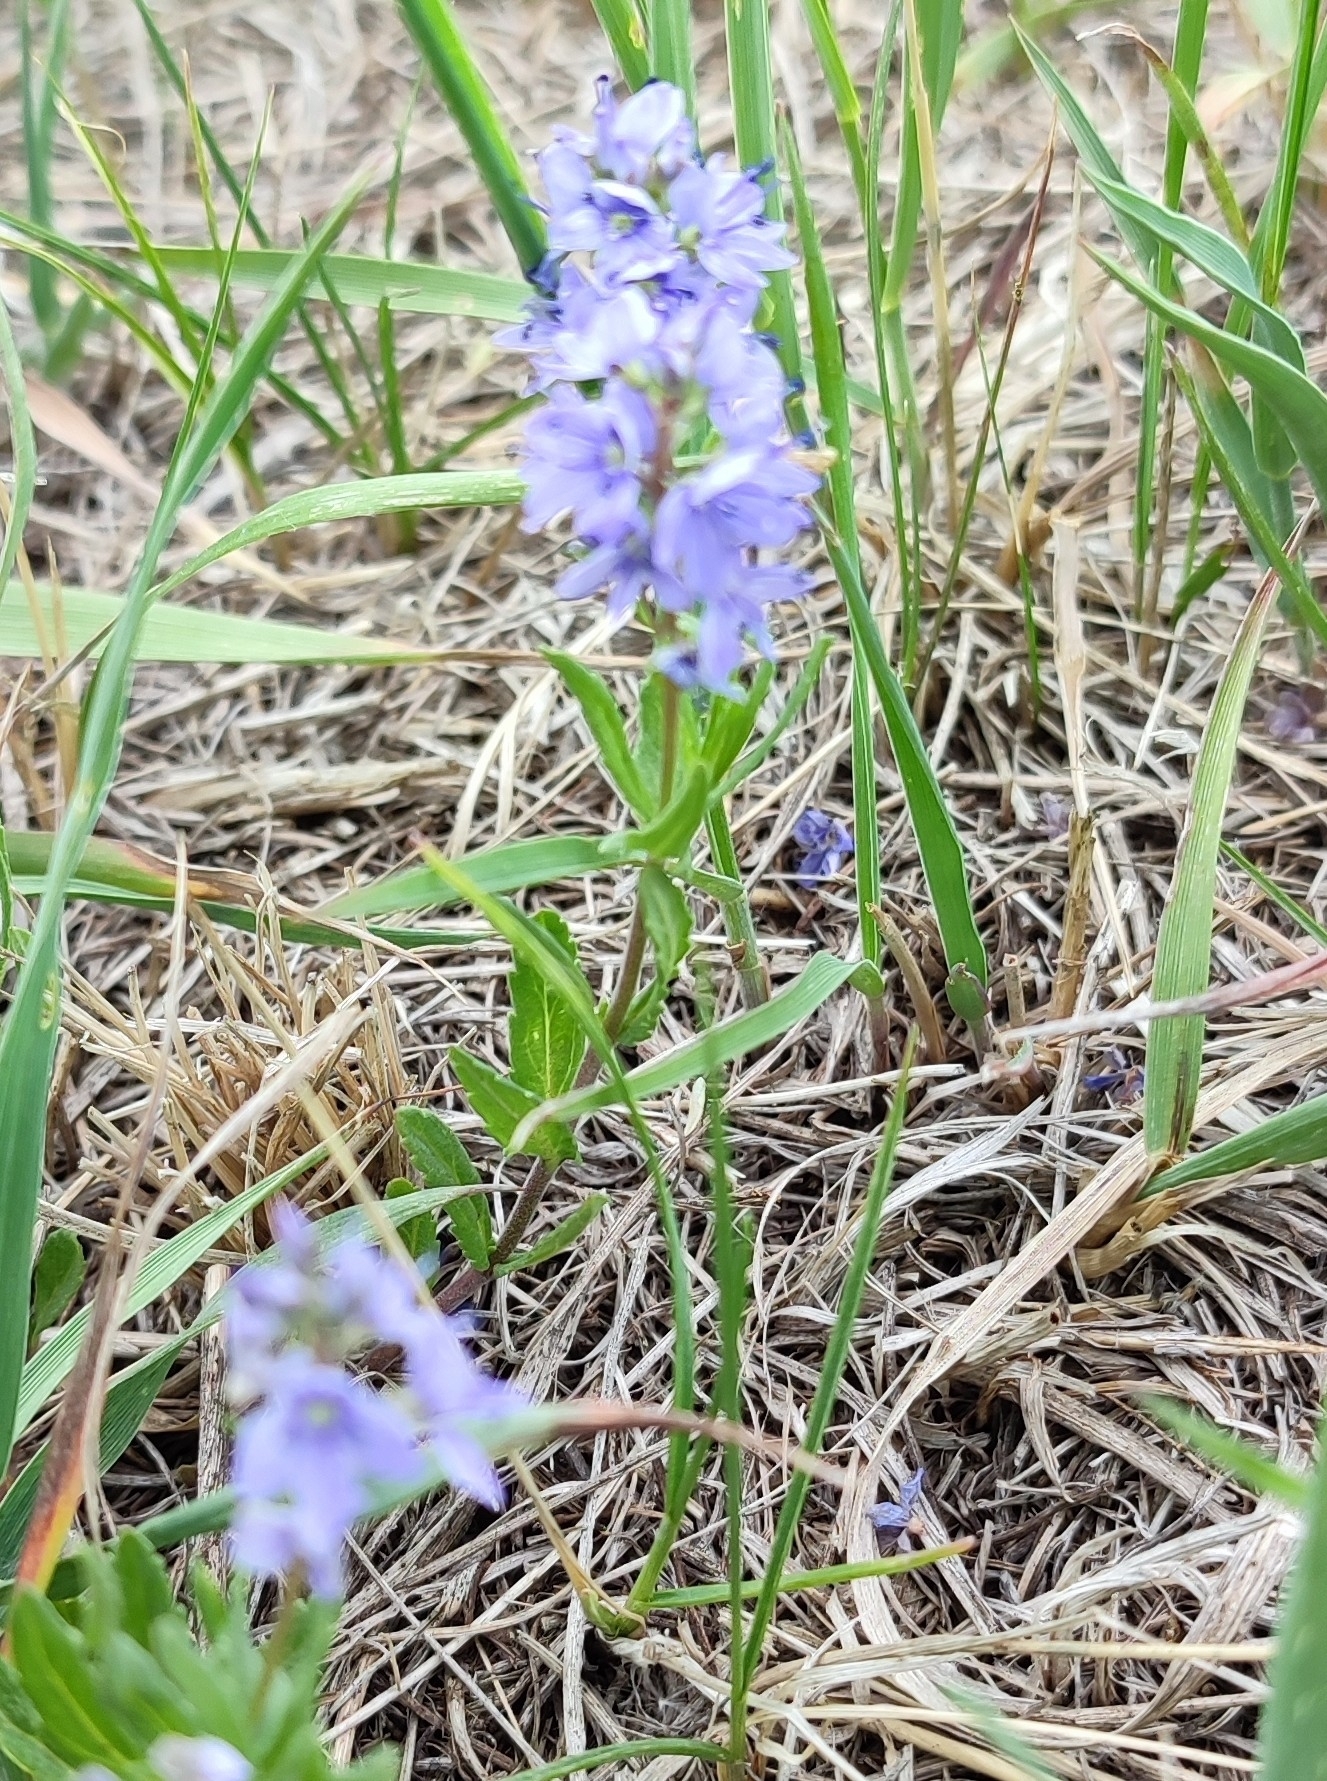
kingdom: Plantae
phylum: Tracheophyta
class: Magnoliopsida
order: Lamiales
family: Plantaginaceae
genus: Veronica
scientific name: Veronica prostrata
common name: Prostrate speedwell
